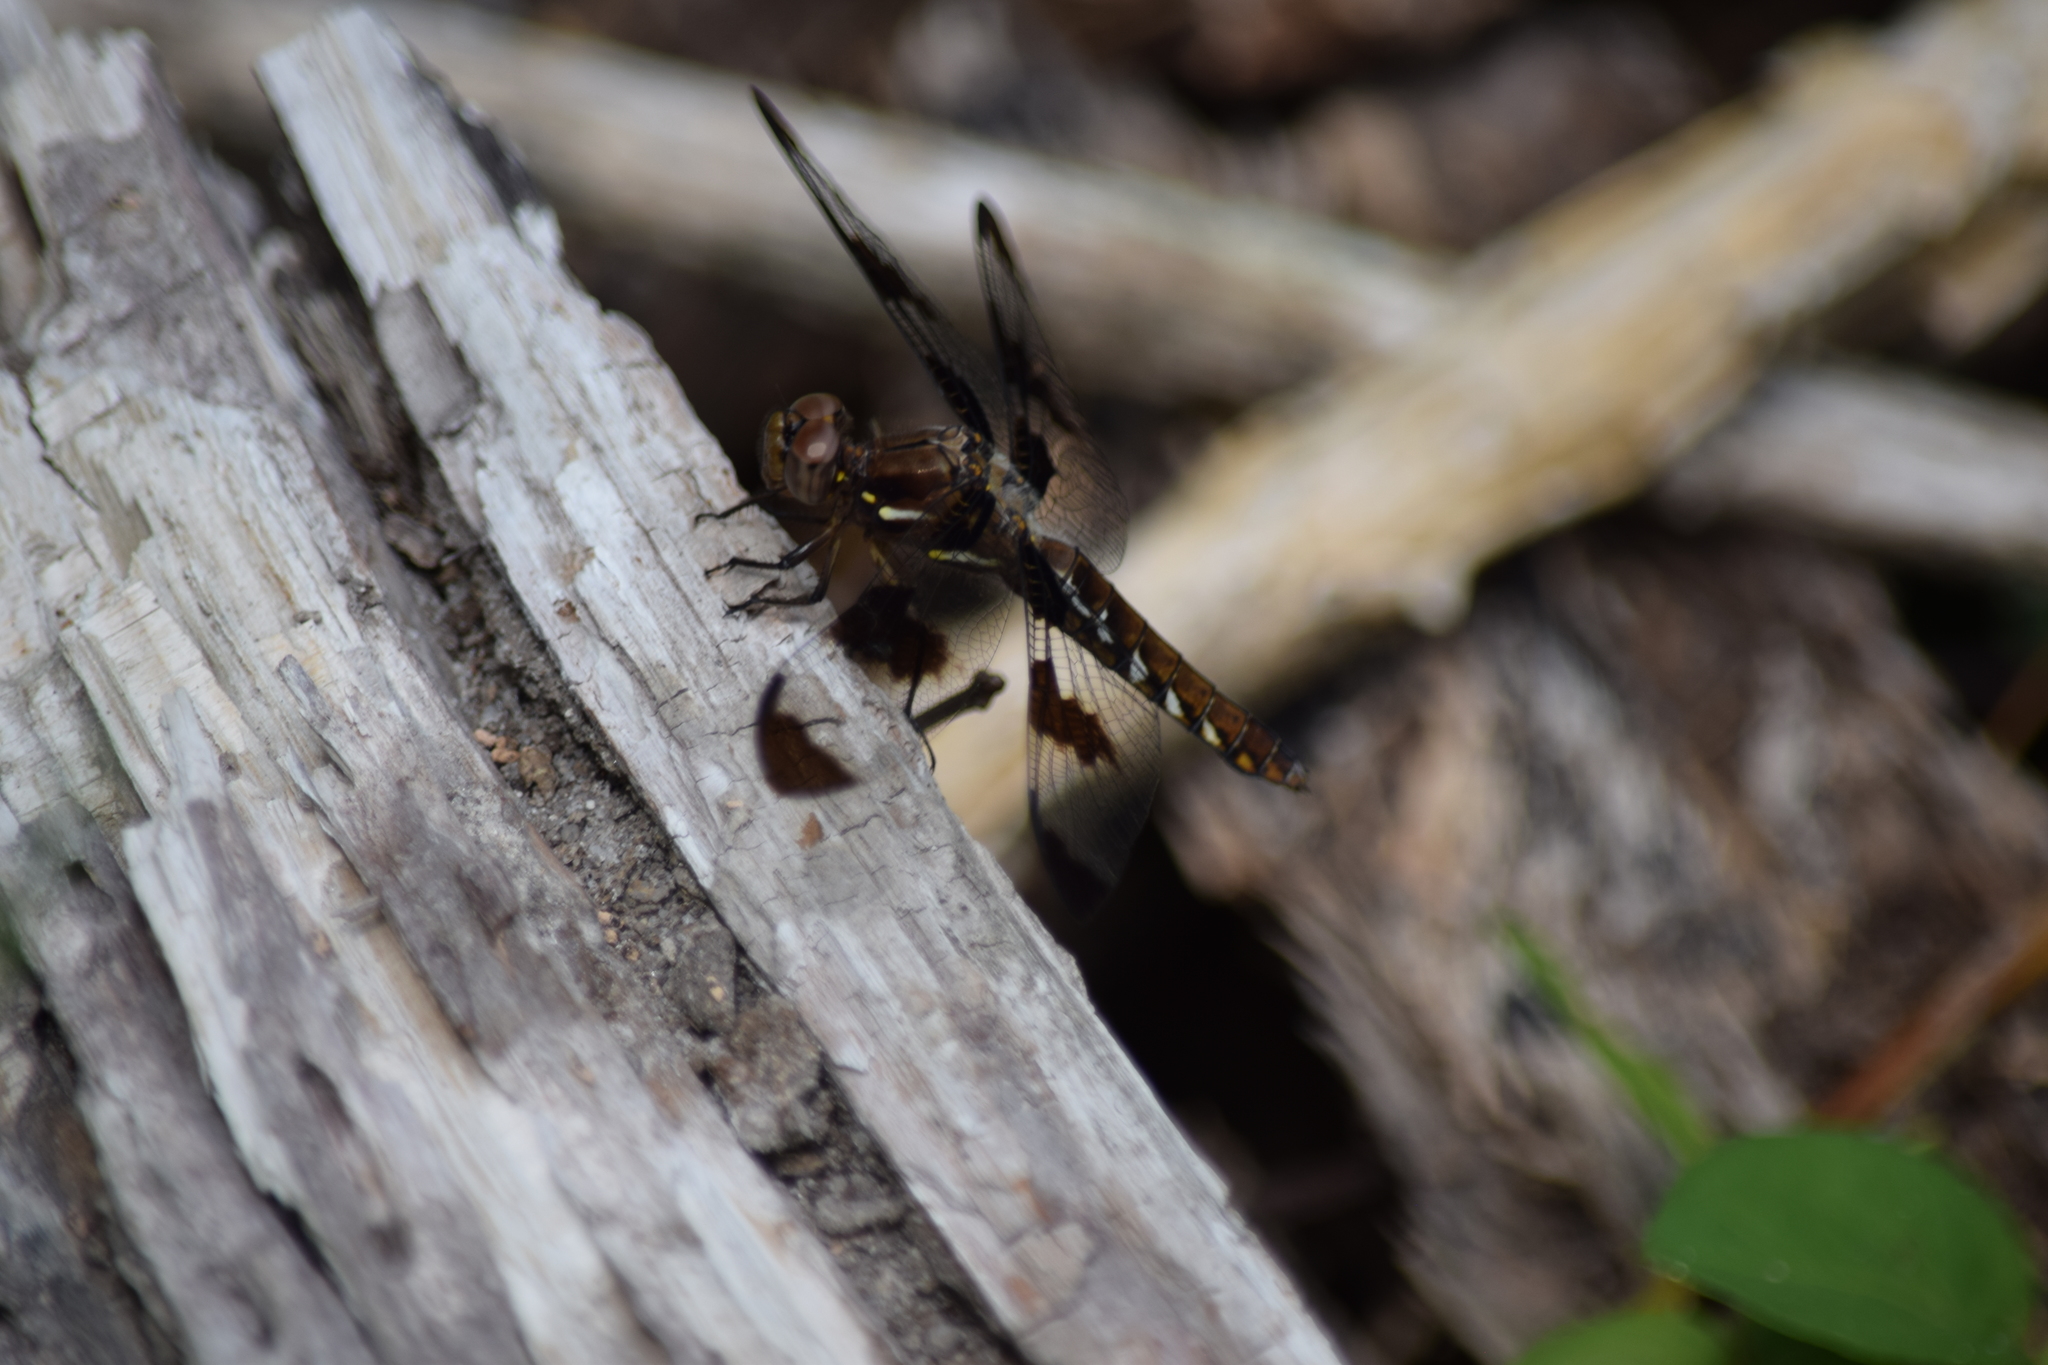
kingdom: Animalia
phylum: Arthropoda
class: Insecta
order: Odonata
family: Libellulidae
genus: Plathemis
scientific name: Plathemis lydia
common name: Common whitetail
